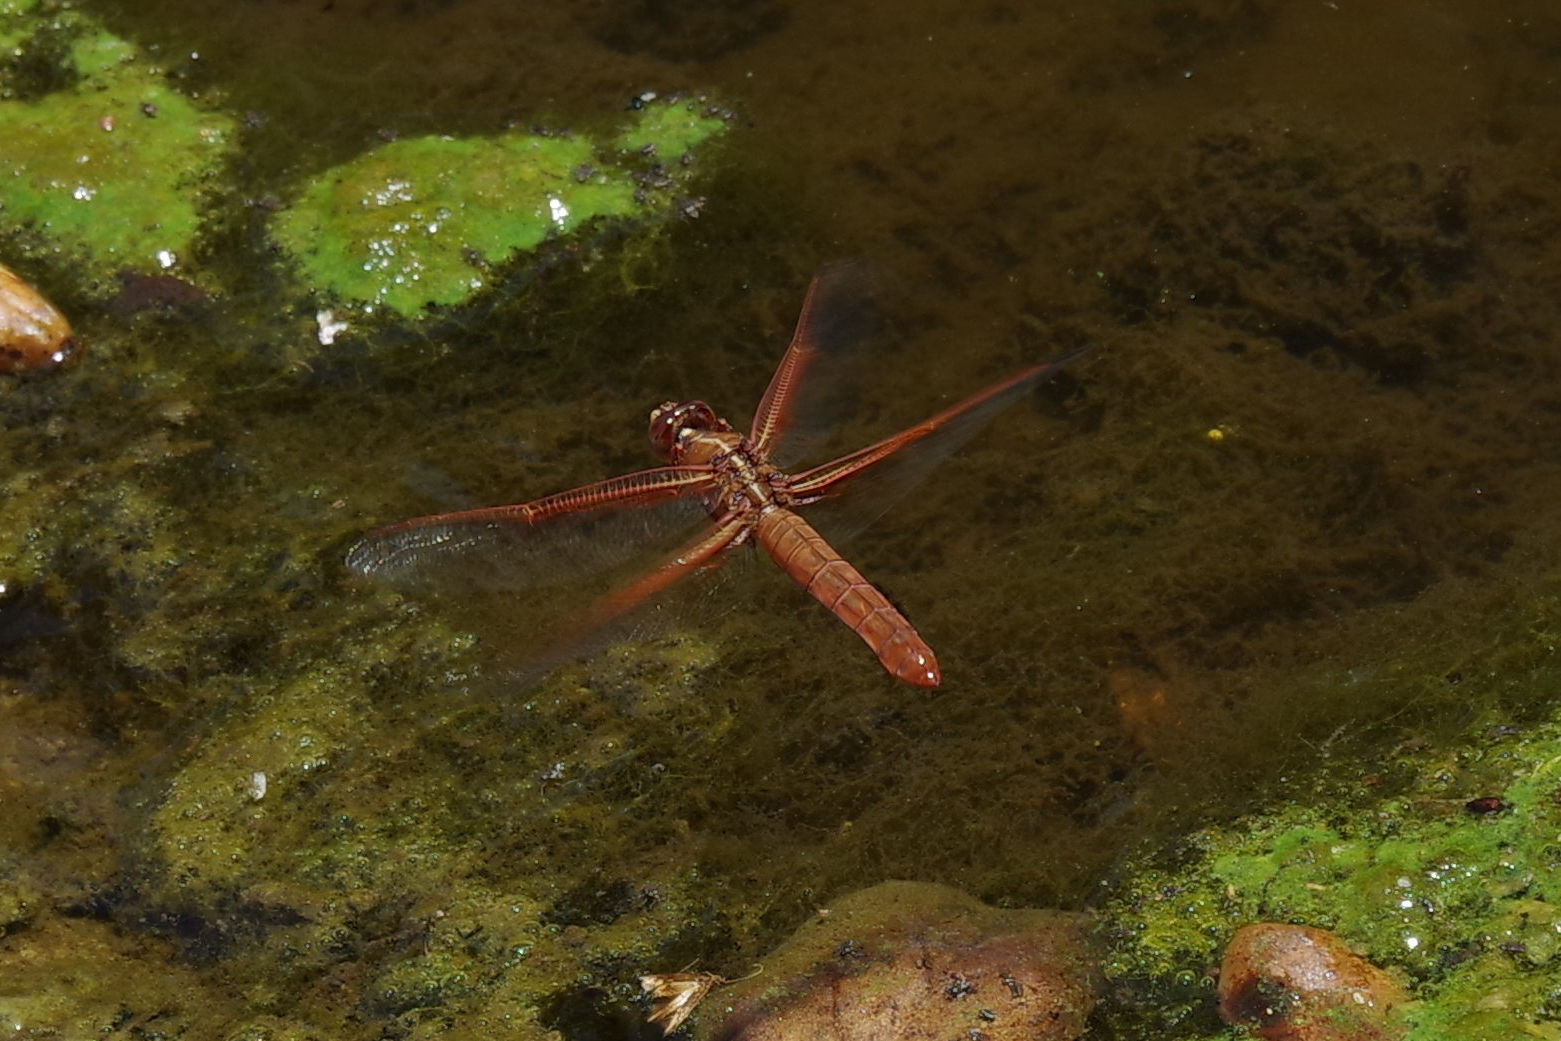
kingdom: Animalia
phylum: Arthropoda
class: Insecta
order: Odonata
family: Libellulidae
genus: Libellula
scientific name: Libellula saturata
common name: Flame skimmer
